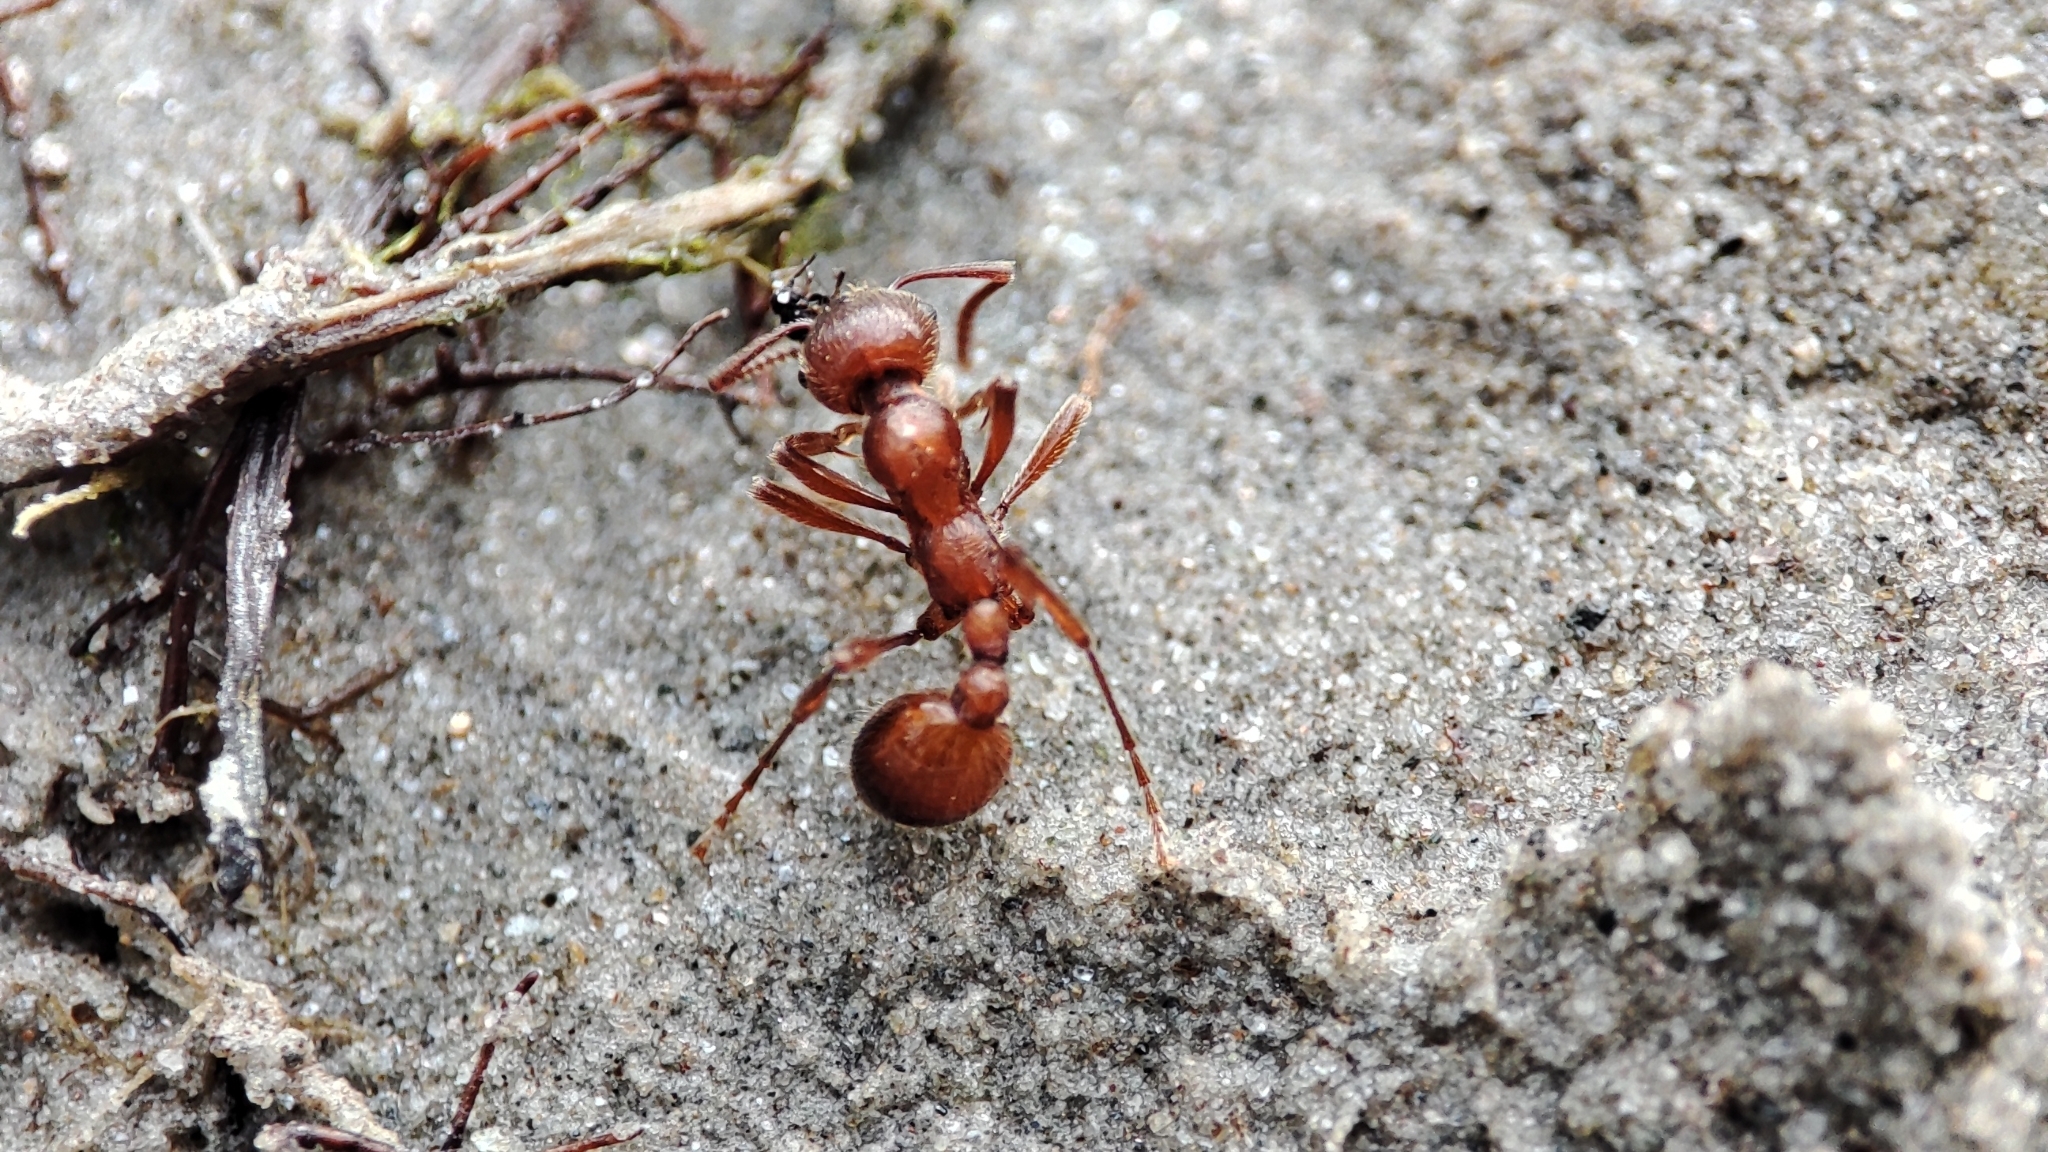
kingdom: Animalia
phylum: Arthropoda
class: Insecta
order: Hymenoptera
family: Formicidae
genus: Manica
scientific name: Manica rubida
